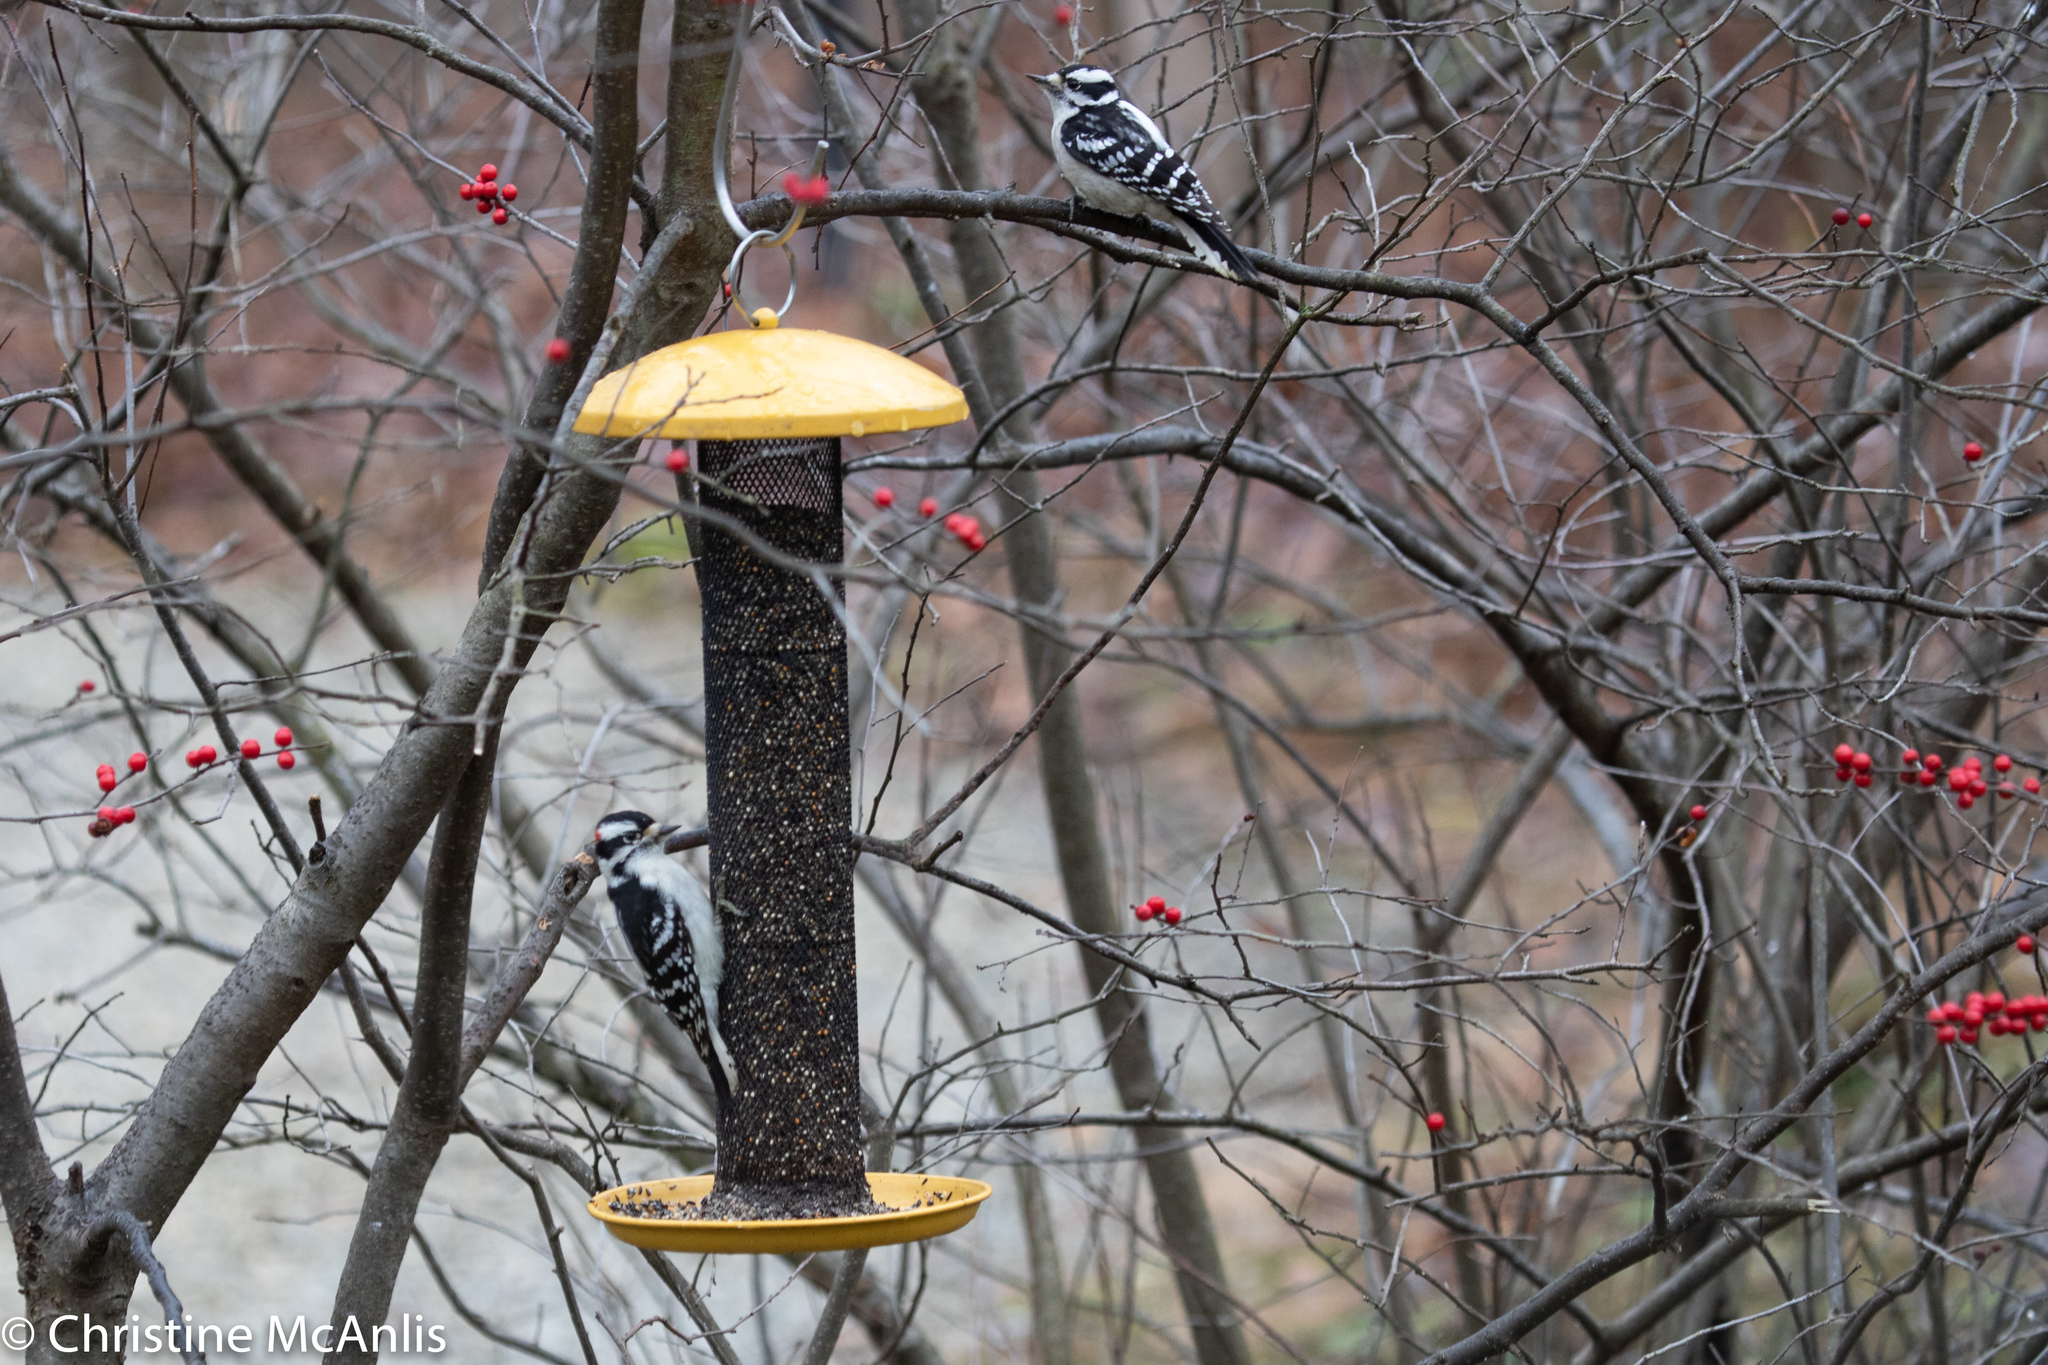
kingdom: Animalia
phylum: Chordata
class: Aves
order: Piciformes
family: Picidae
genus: Dryobates
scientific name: Dryobates pubescens
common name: Downy woodpecker
